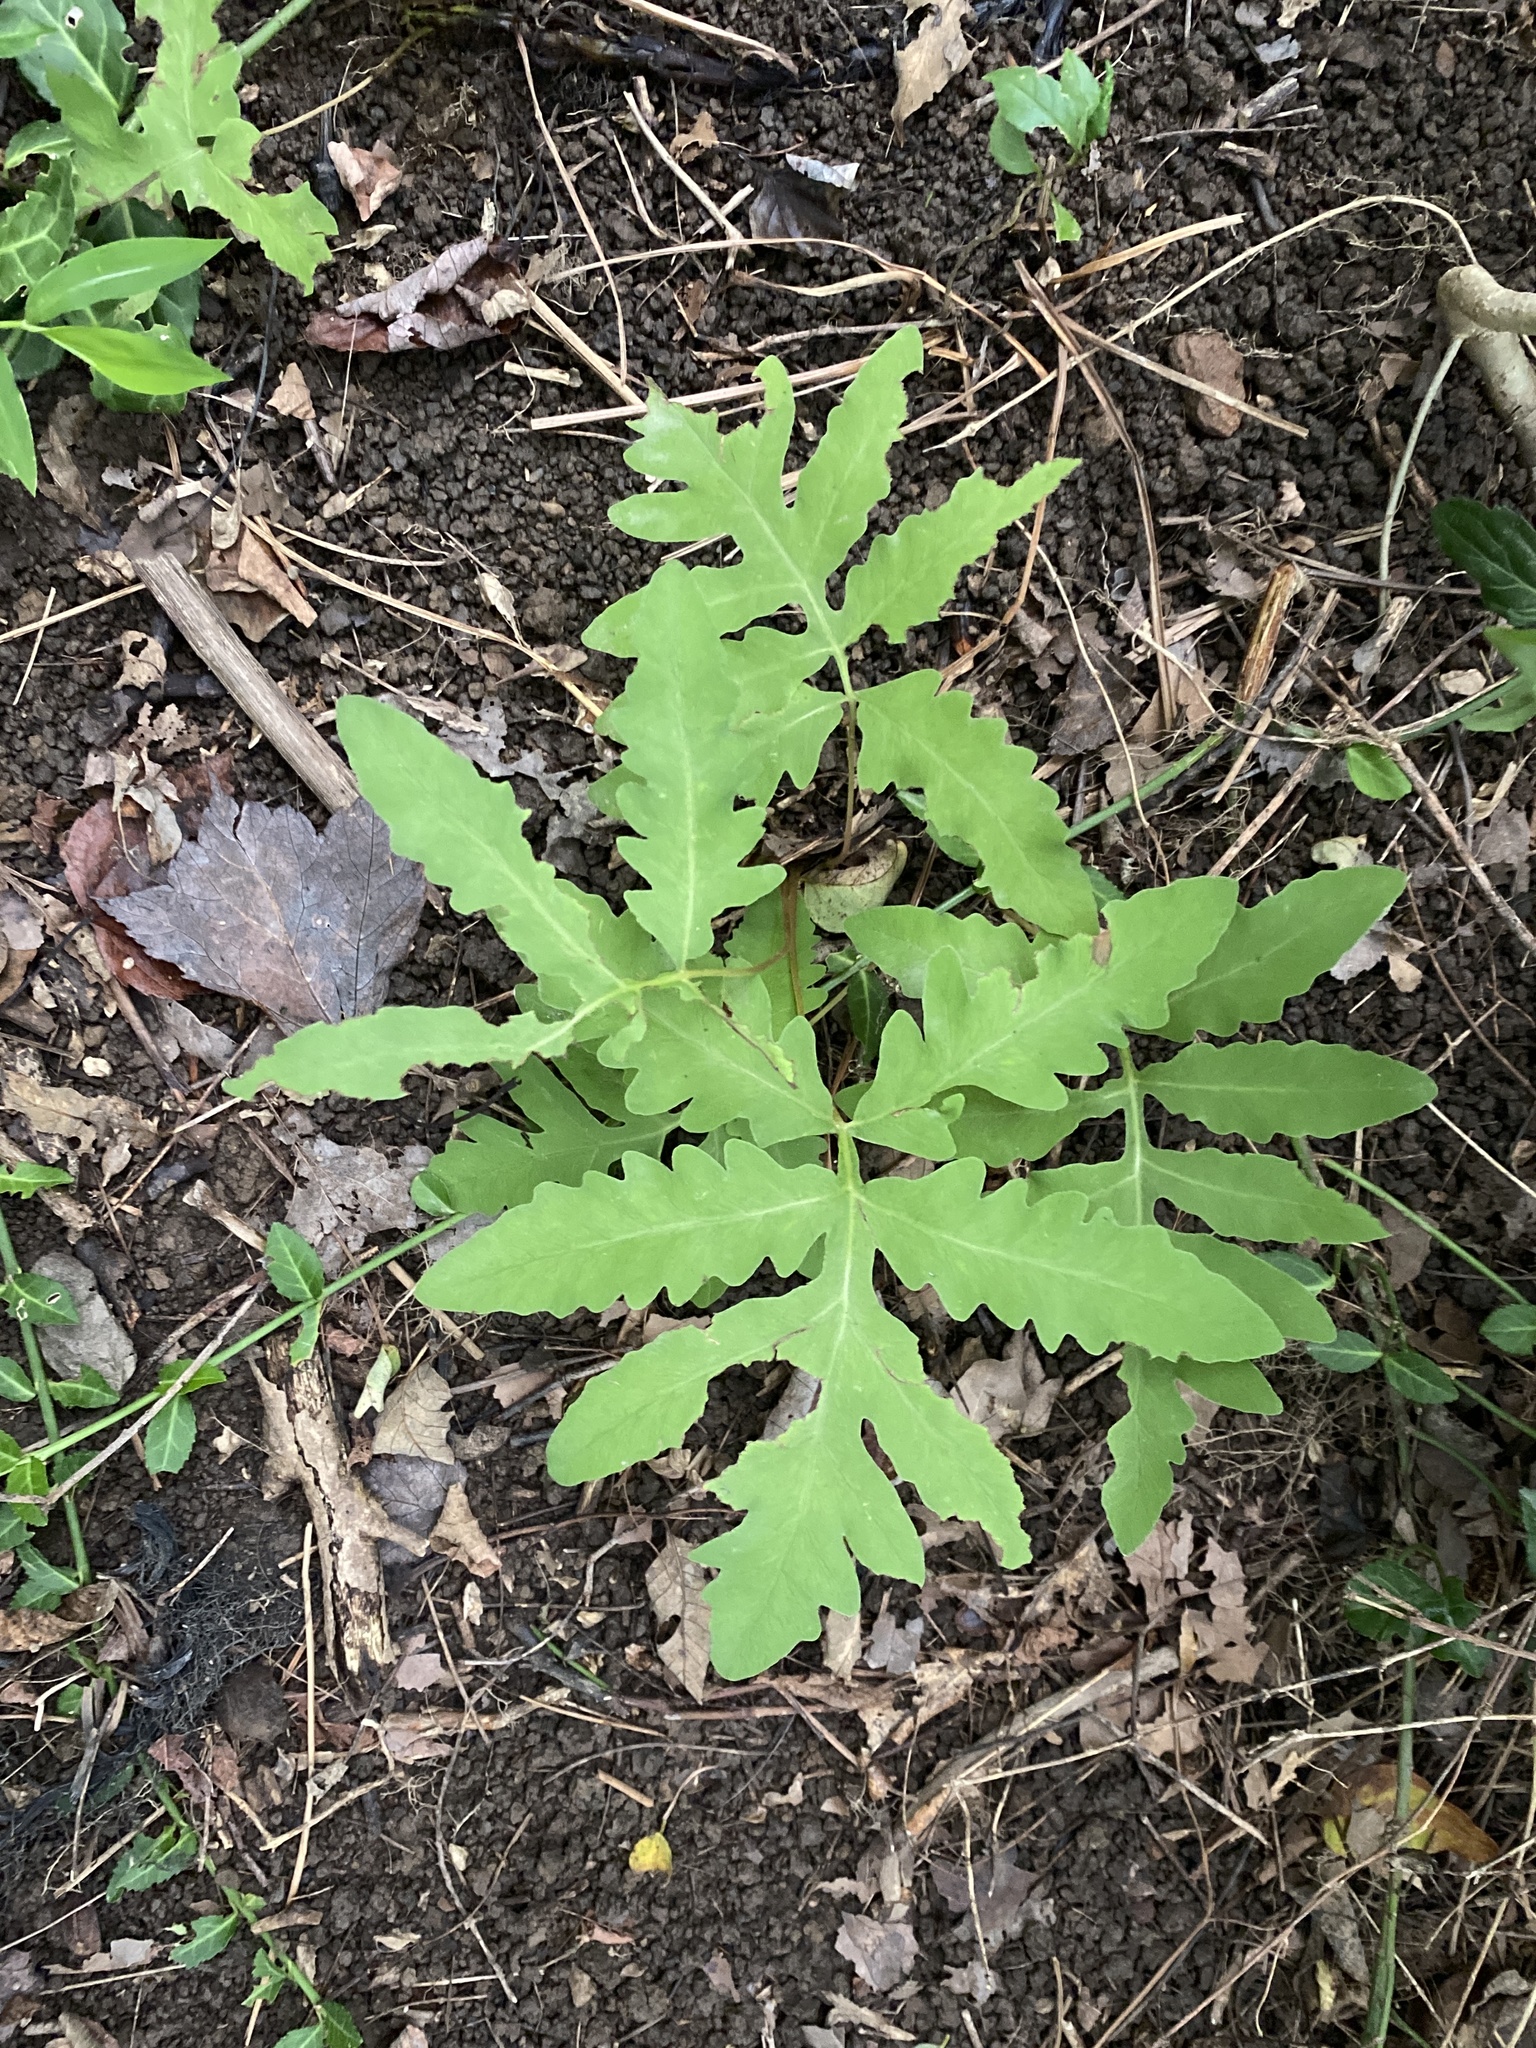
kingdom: Plantae
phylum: Tracheophyta
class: Polypodiopsida
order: Polypodiales
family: Onocleaceae
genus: Onoclea
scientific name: Onoclea sensibilis
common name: Sensitive fern
